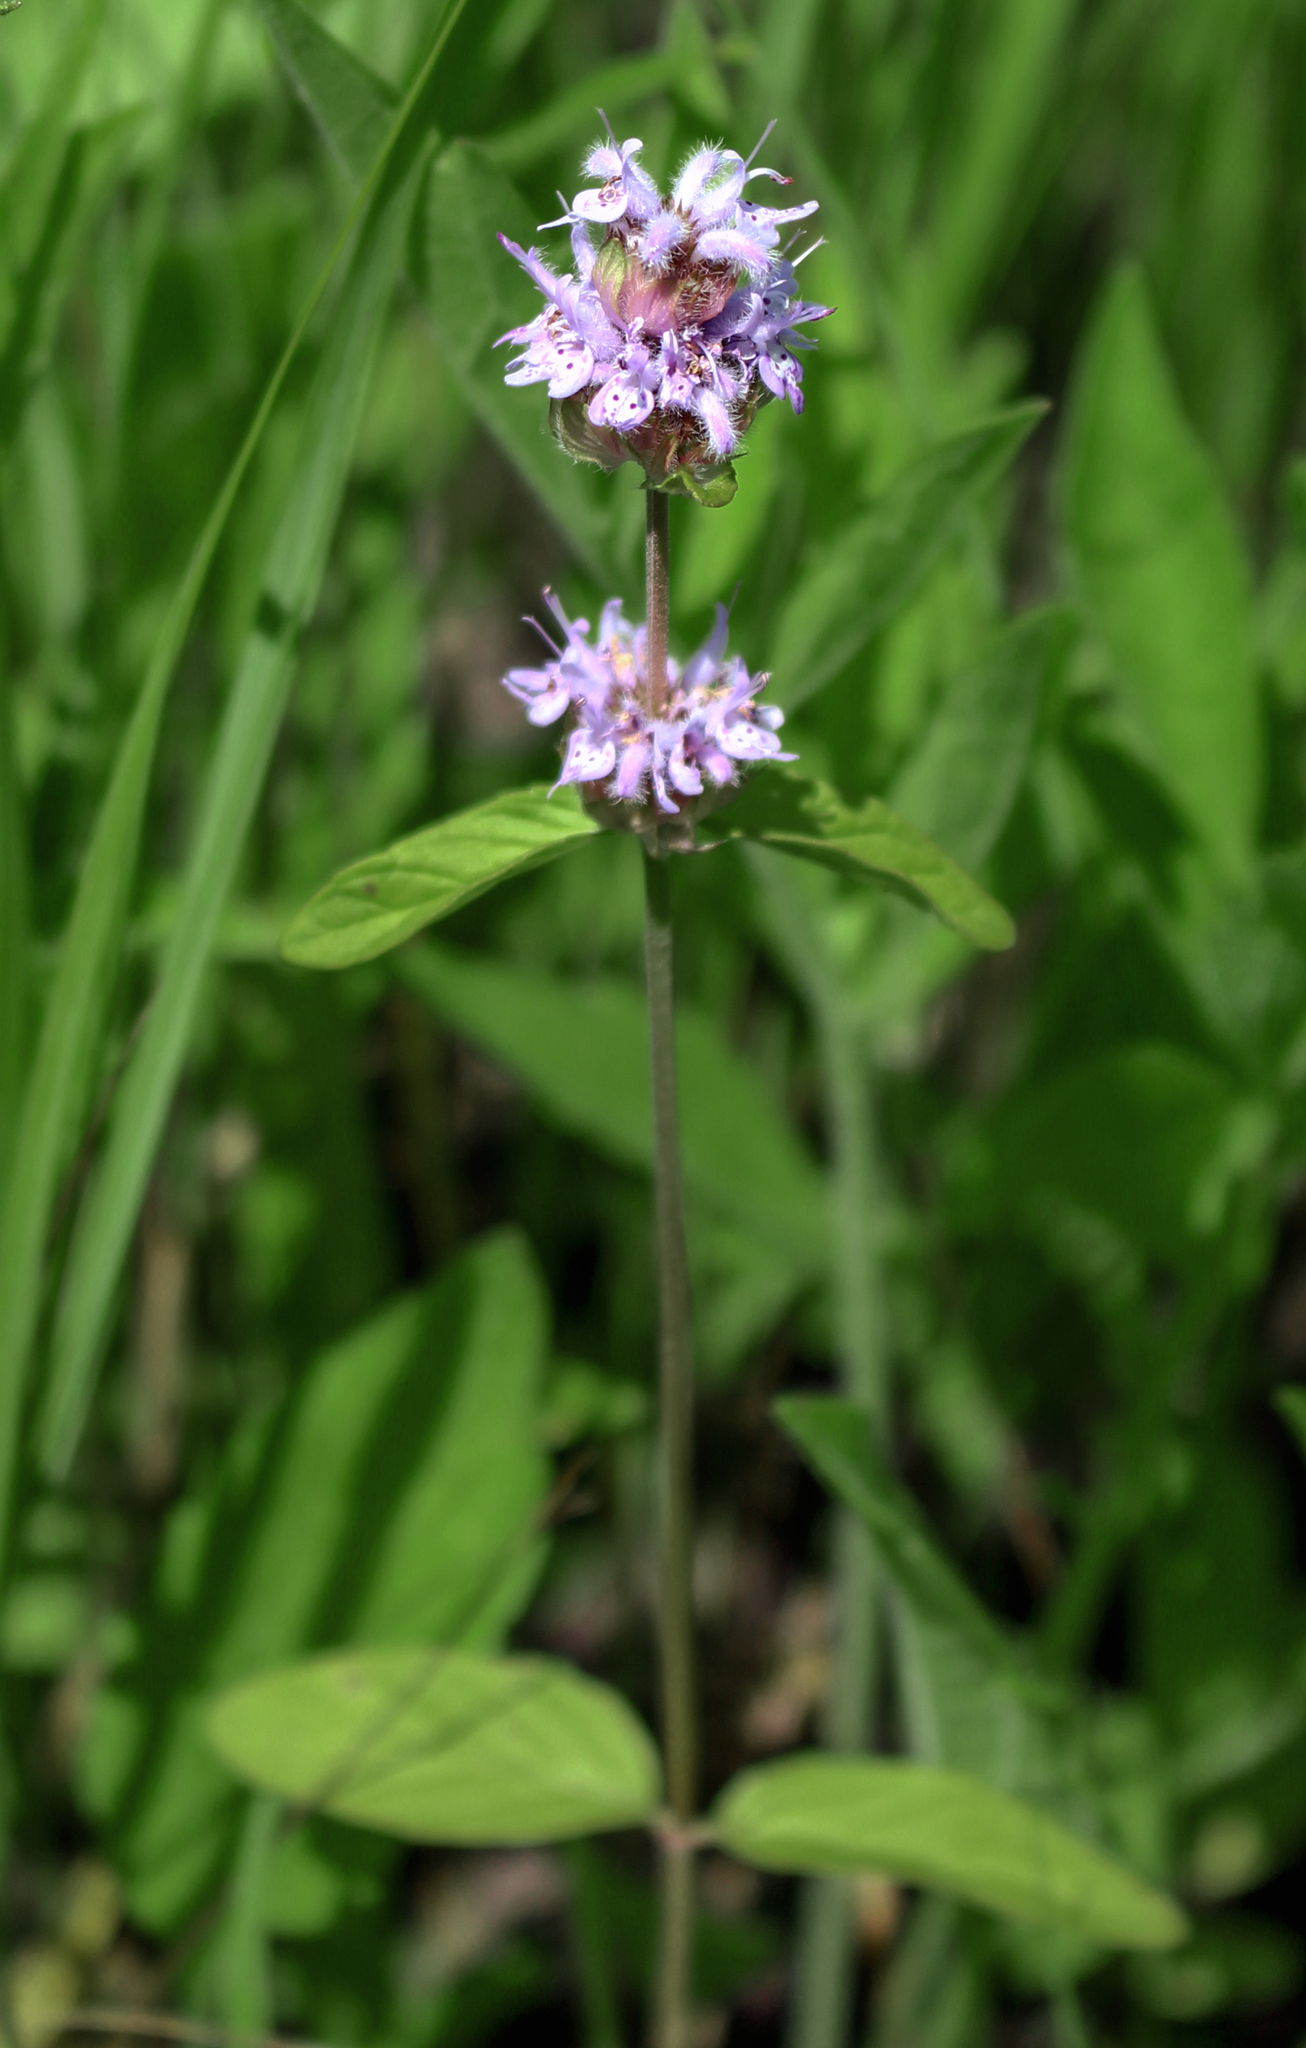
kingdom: Plantae
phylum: Tracheophyta
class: Magnoliopsida
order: Lamiales
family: Lamiaceae
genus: Blephilia
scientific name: Blephilia ciliata
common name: Downy blephilia
